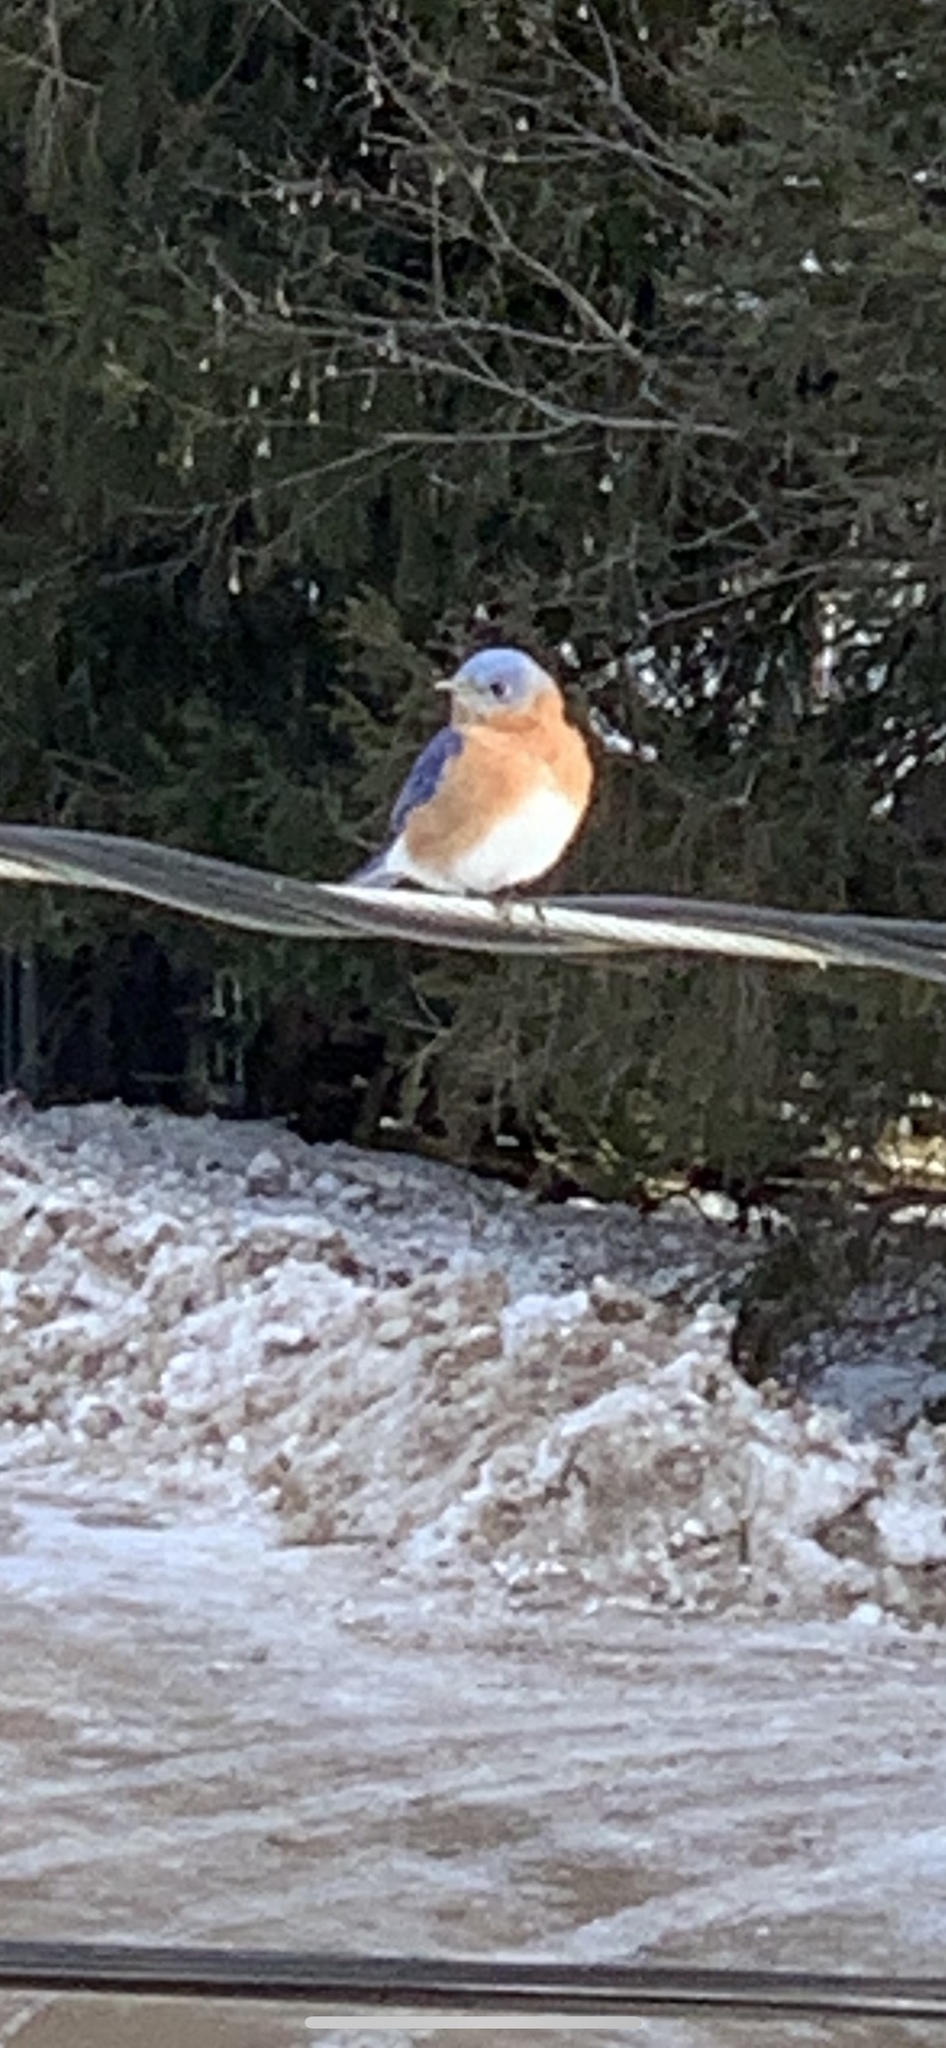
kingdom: Animalia
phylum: Chordata
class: Aves
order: Passeriformes
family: Turdidae
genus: Sialia
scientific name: Sialia sialis
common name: Eastern bluebird
